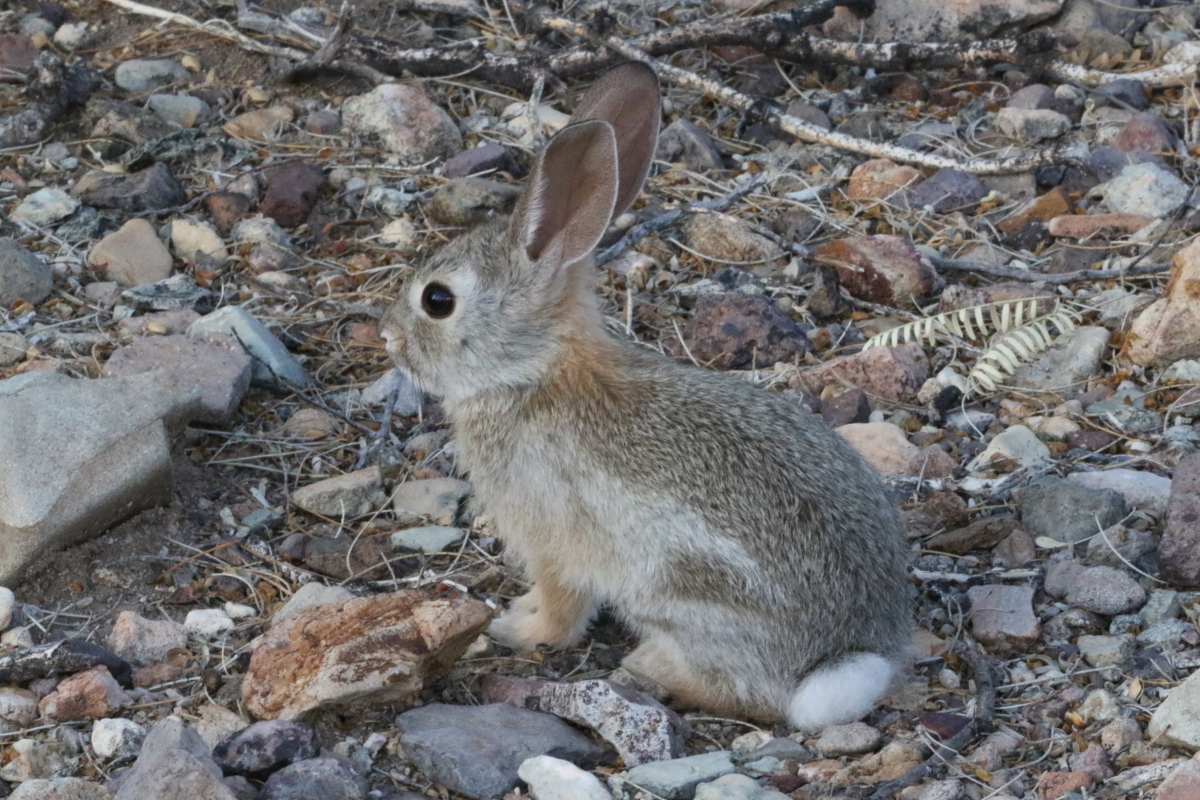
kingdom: Animalia
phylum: Chordata
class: Mammalia
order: Lagomorpha
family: Leporidae
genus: Sylvilagus
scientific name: Sylvilagus audubonii
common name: Desert cottontail
